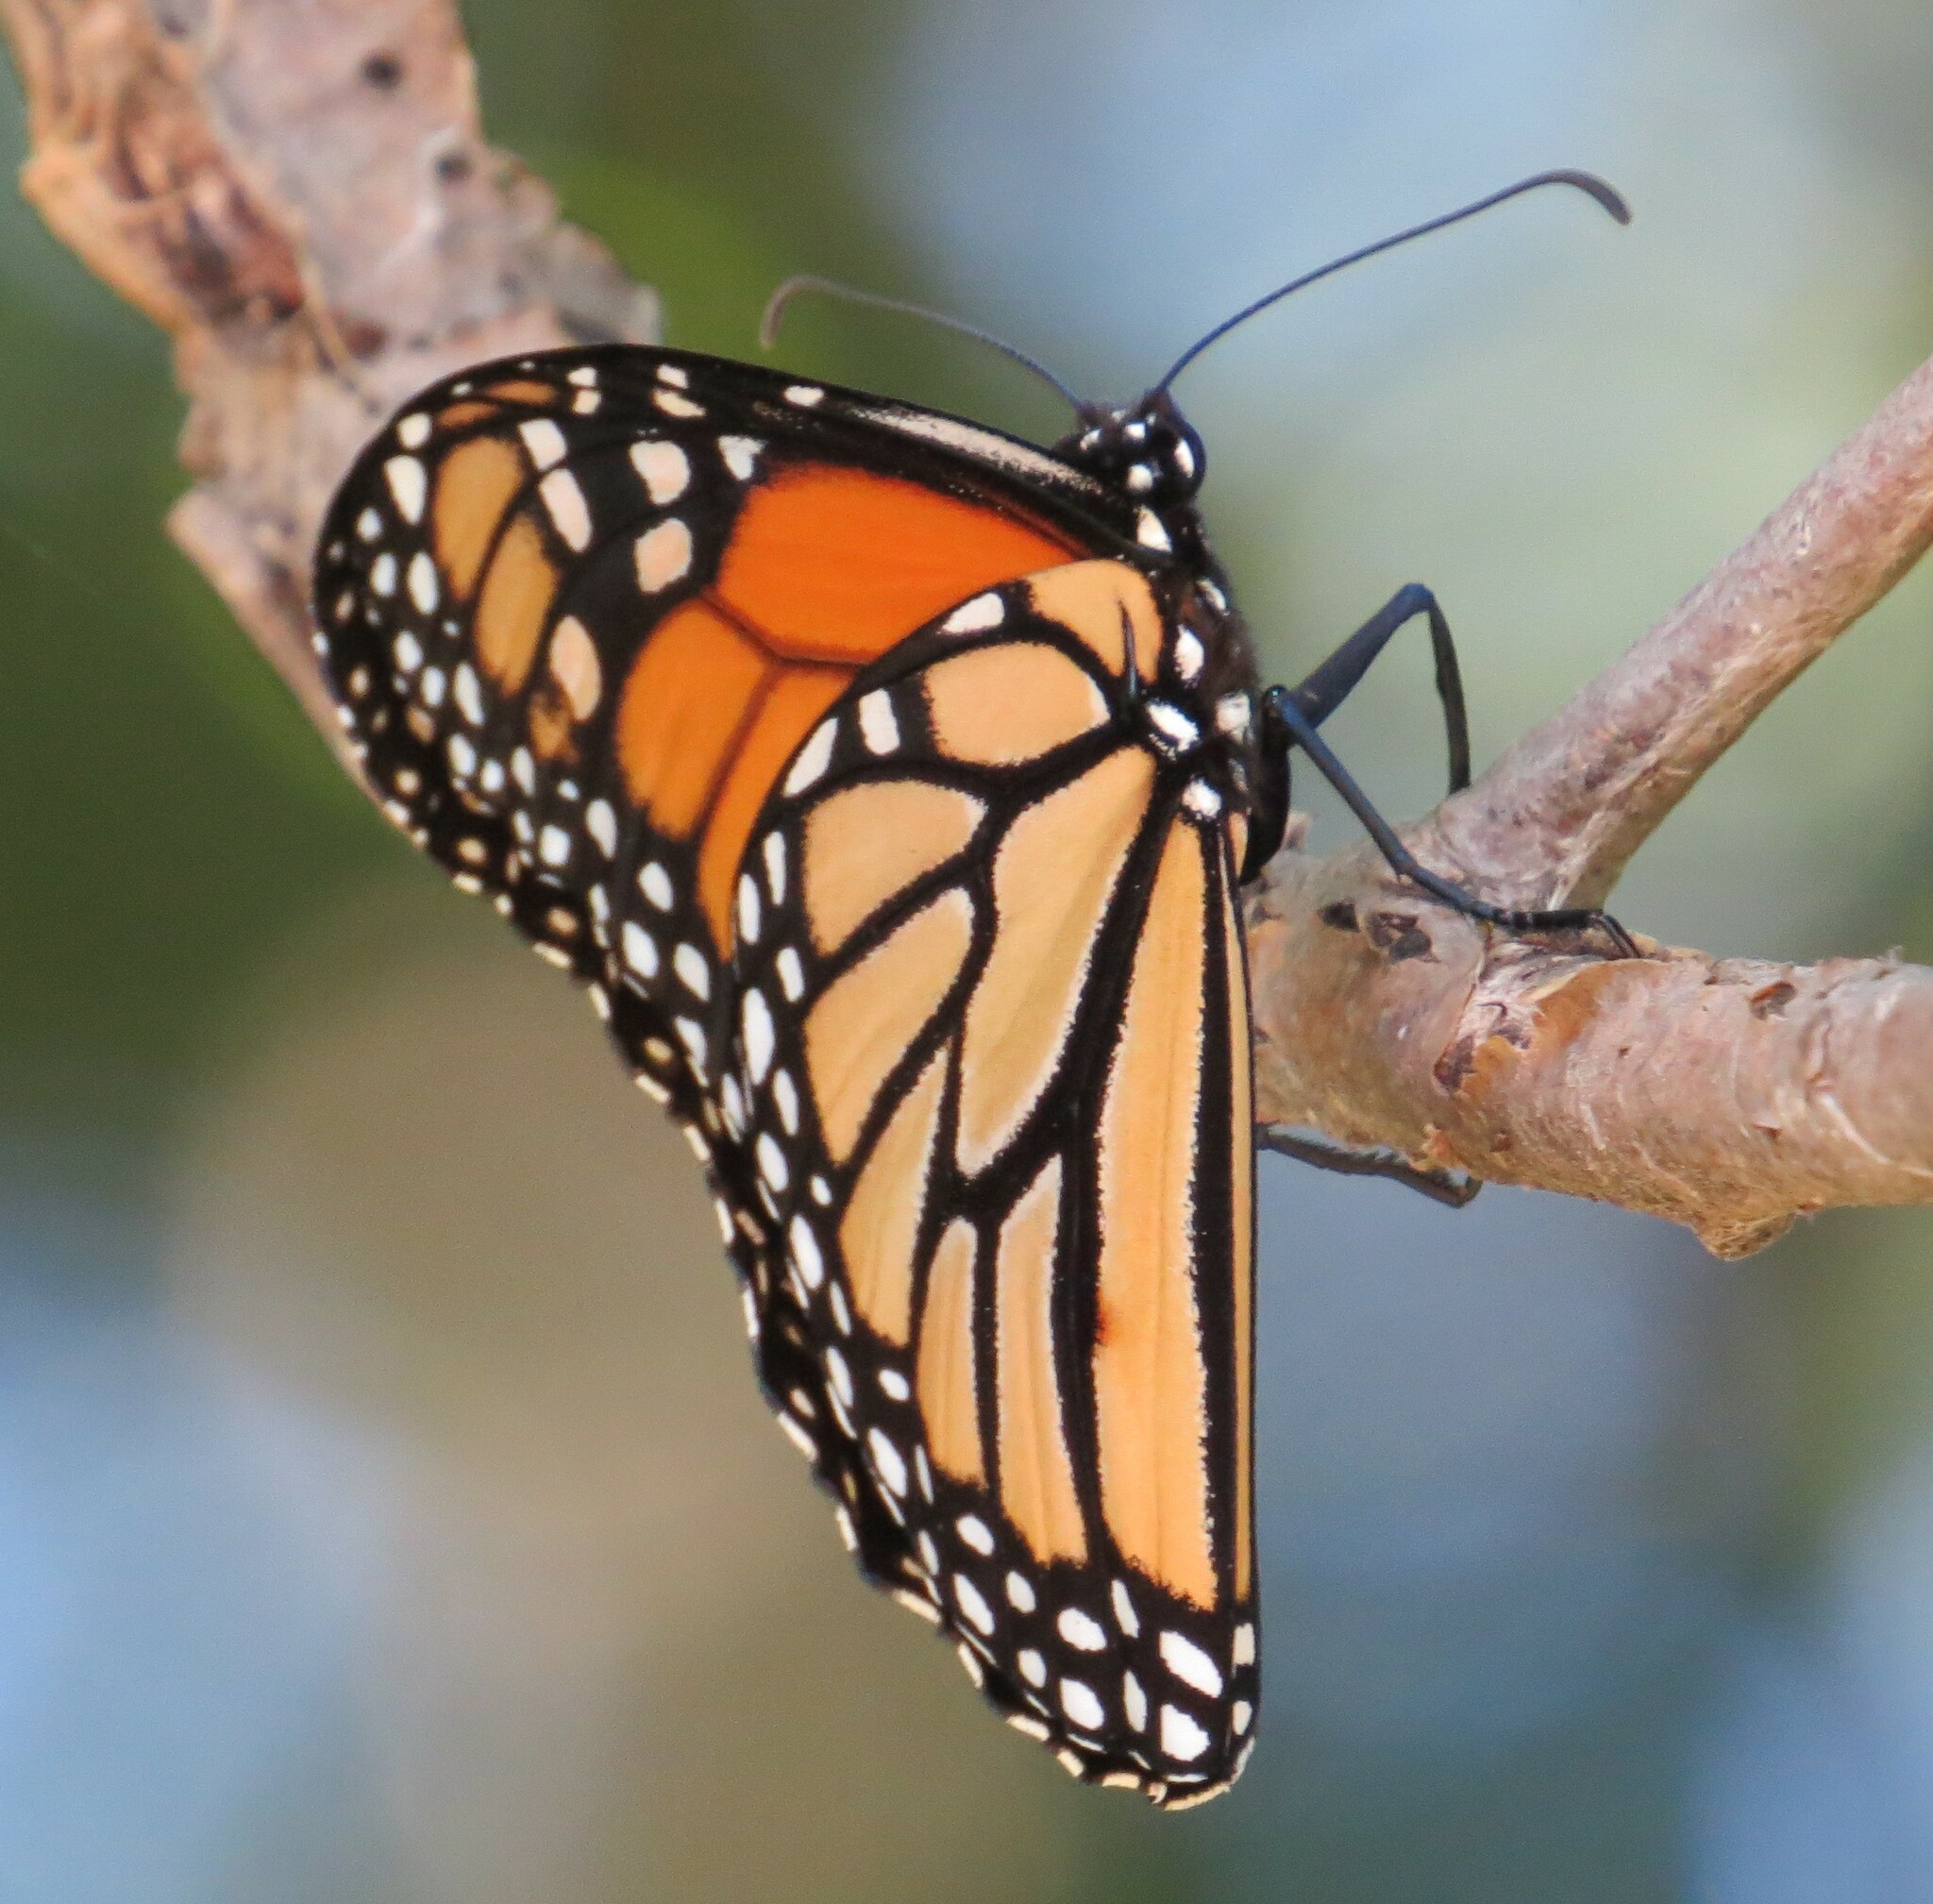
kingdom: Animalia
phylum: Arthropoda
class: Insecta
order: Lepidoptera
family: Nymphalidae
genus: Danaus
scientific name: Danaus plexippus
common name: Monarch
